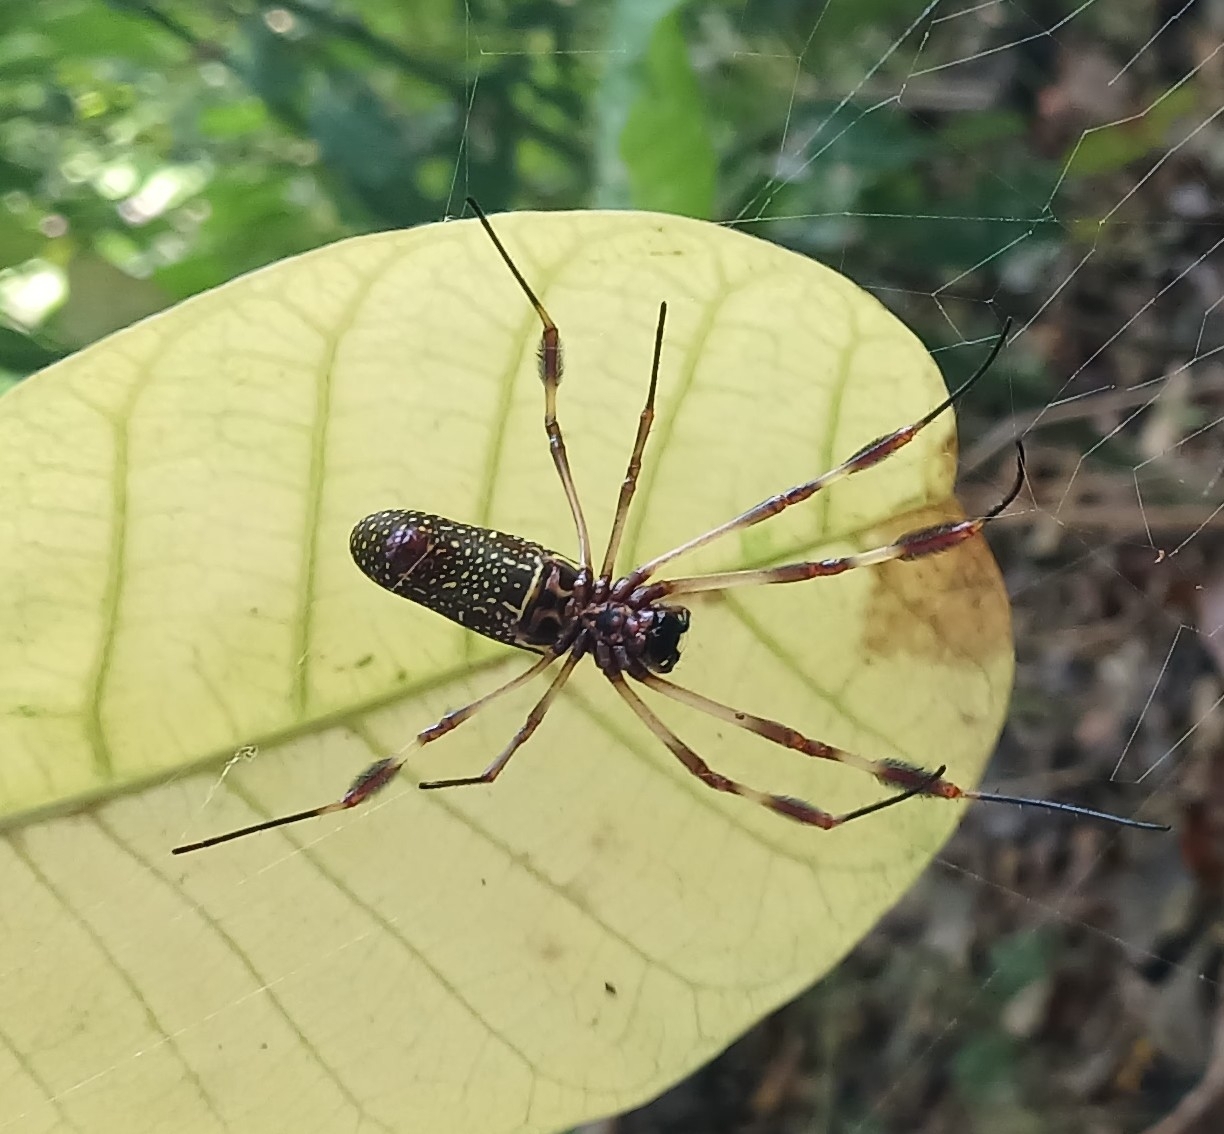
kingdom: Animalia
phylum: Arthropoda
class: Arachnida
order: Araneae
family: Araneidae
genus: Trichonephila
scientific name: Trichonephila clavipes
